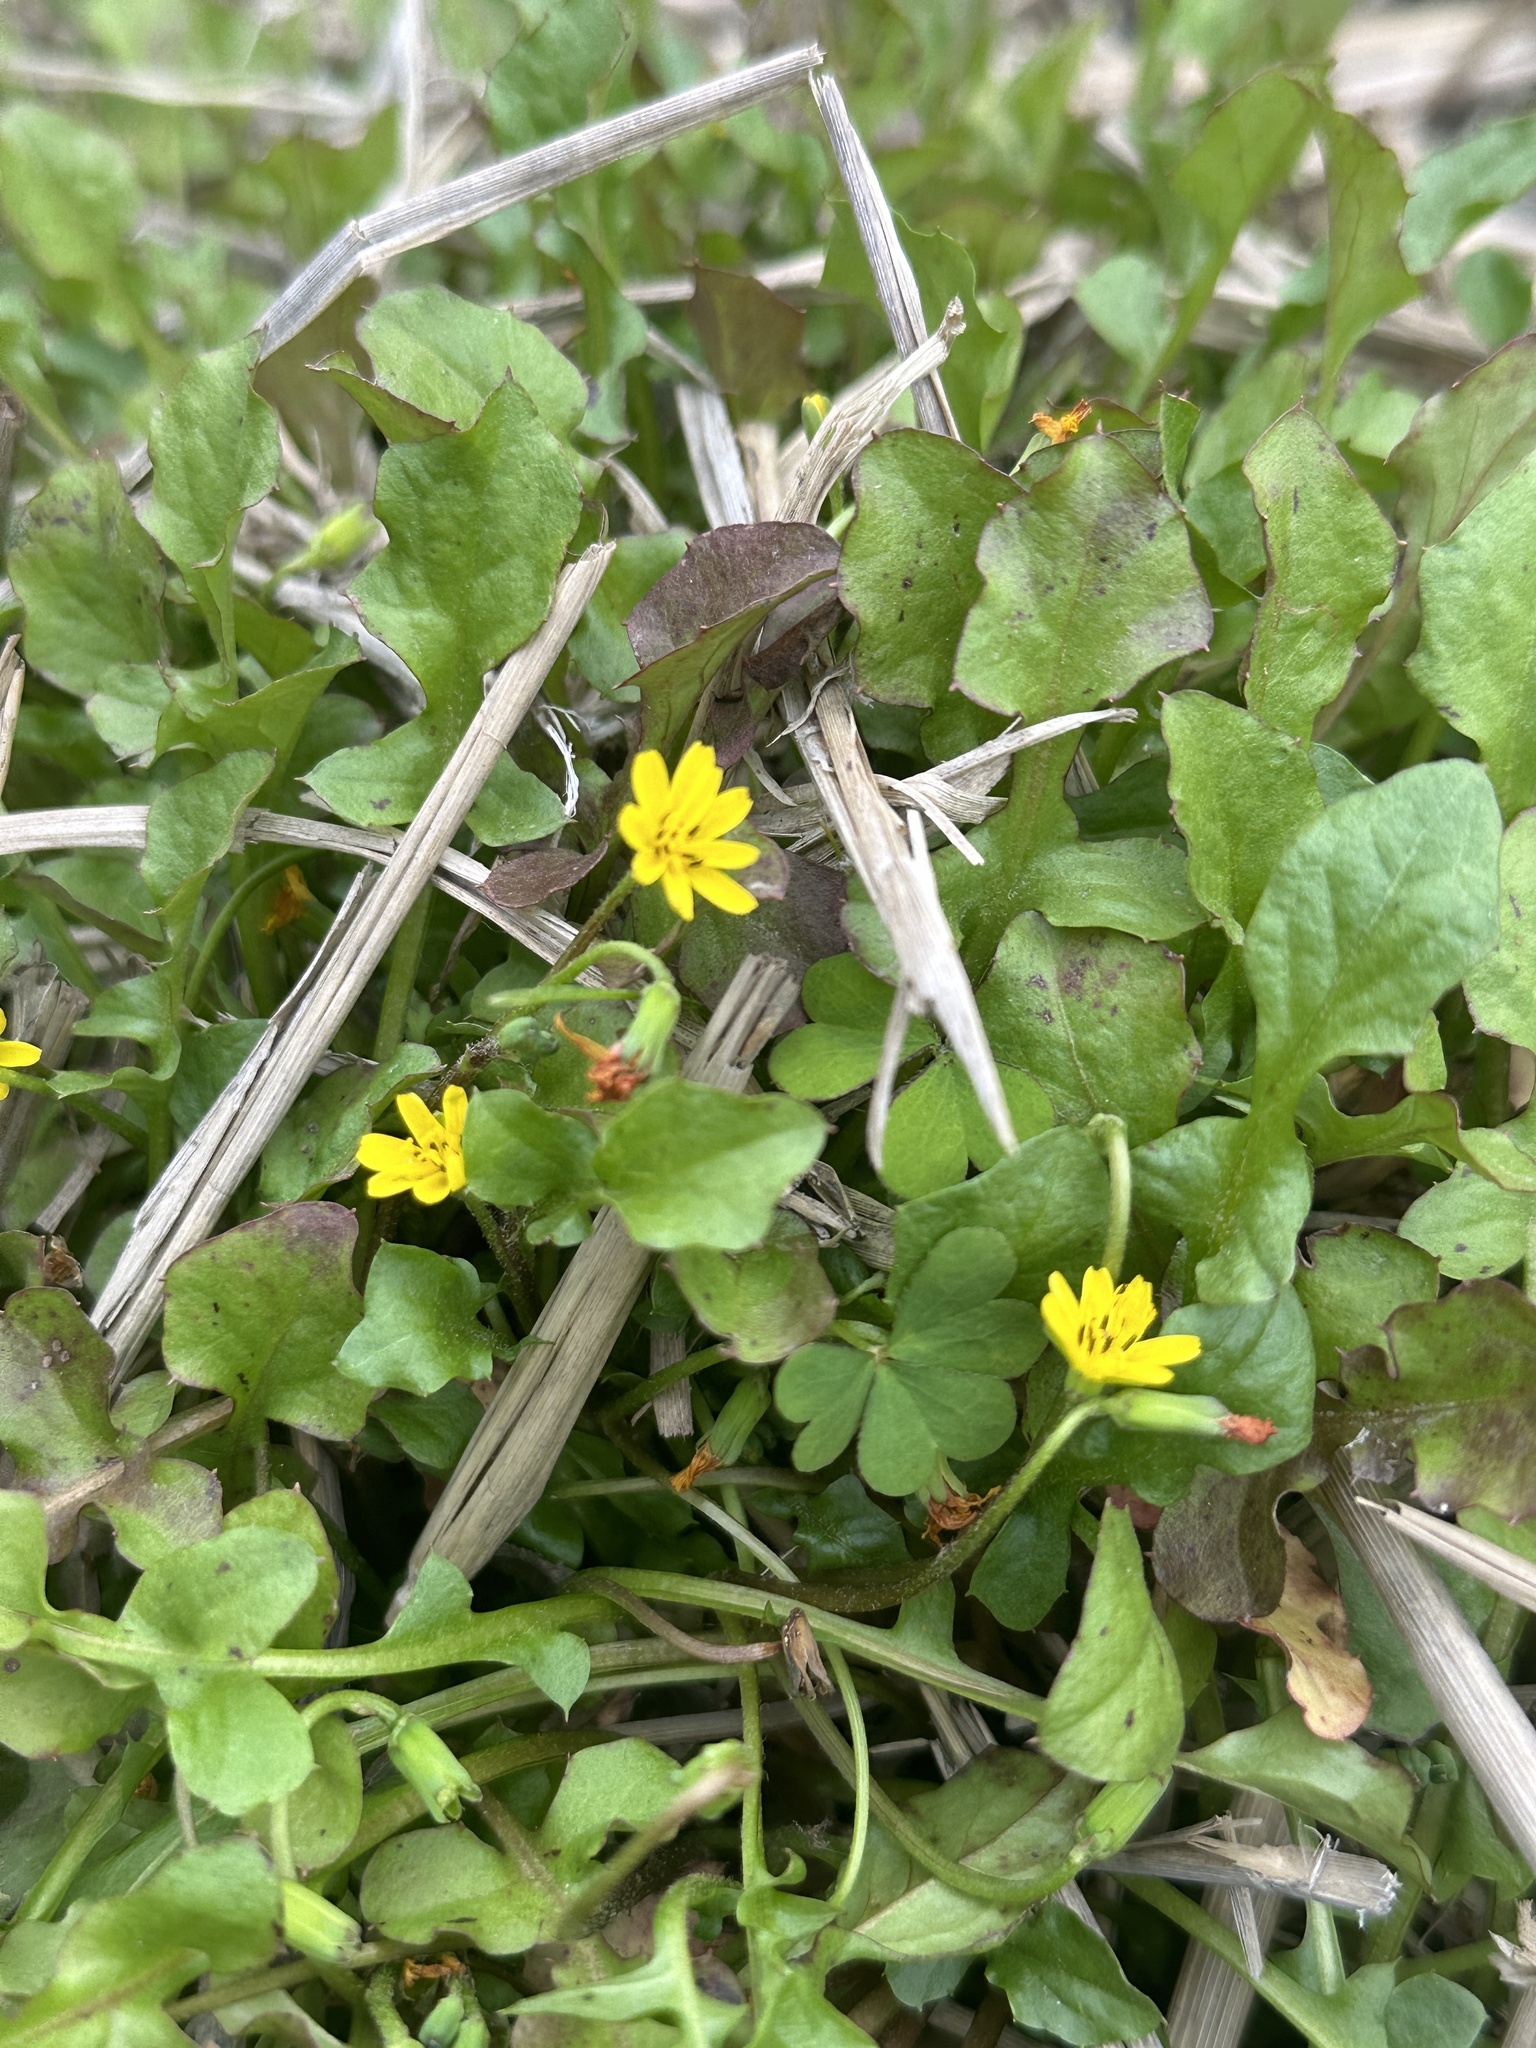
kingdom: Plantae
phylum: Tracheophyta
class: Magnoliopsida
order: Asterales
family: Asteraceae
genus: Lapsanastrum
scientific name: Lapsanastrum apogonoides
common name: Japanese nipplewort
